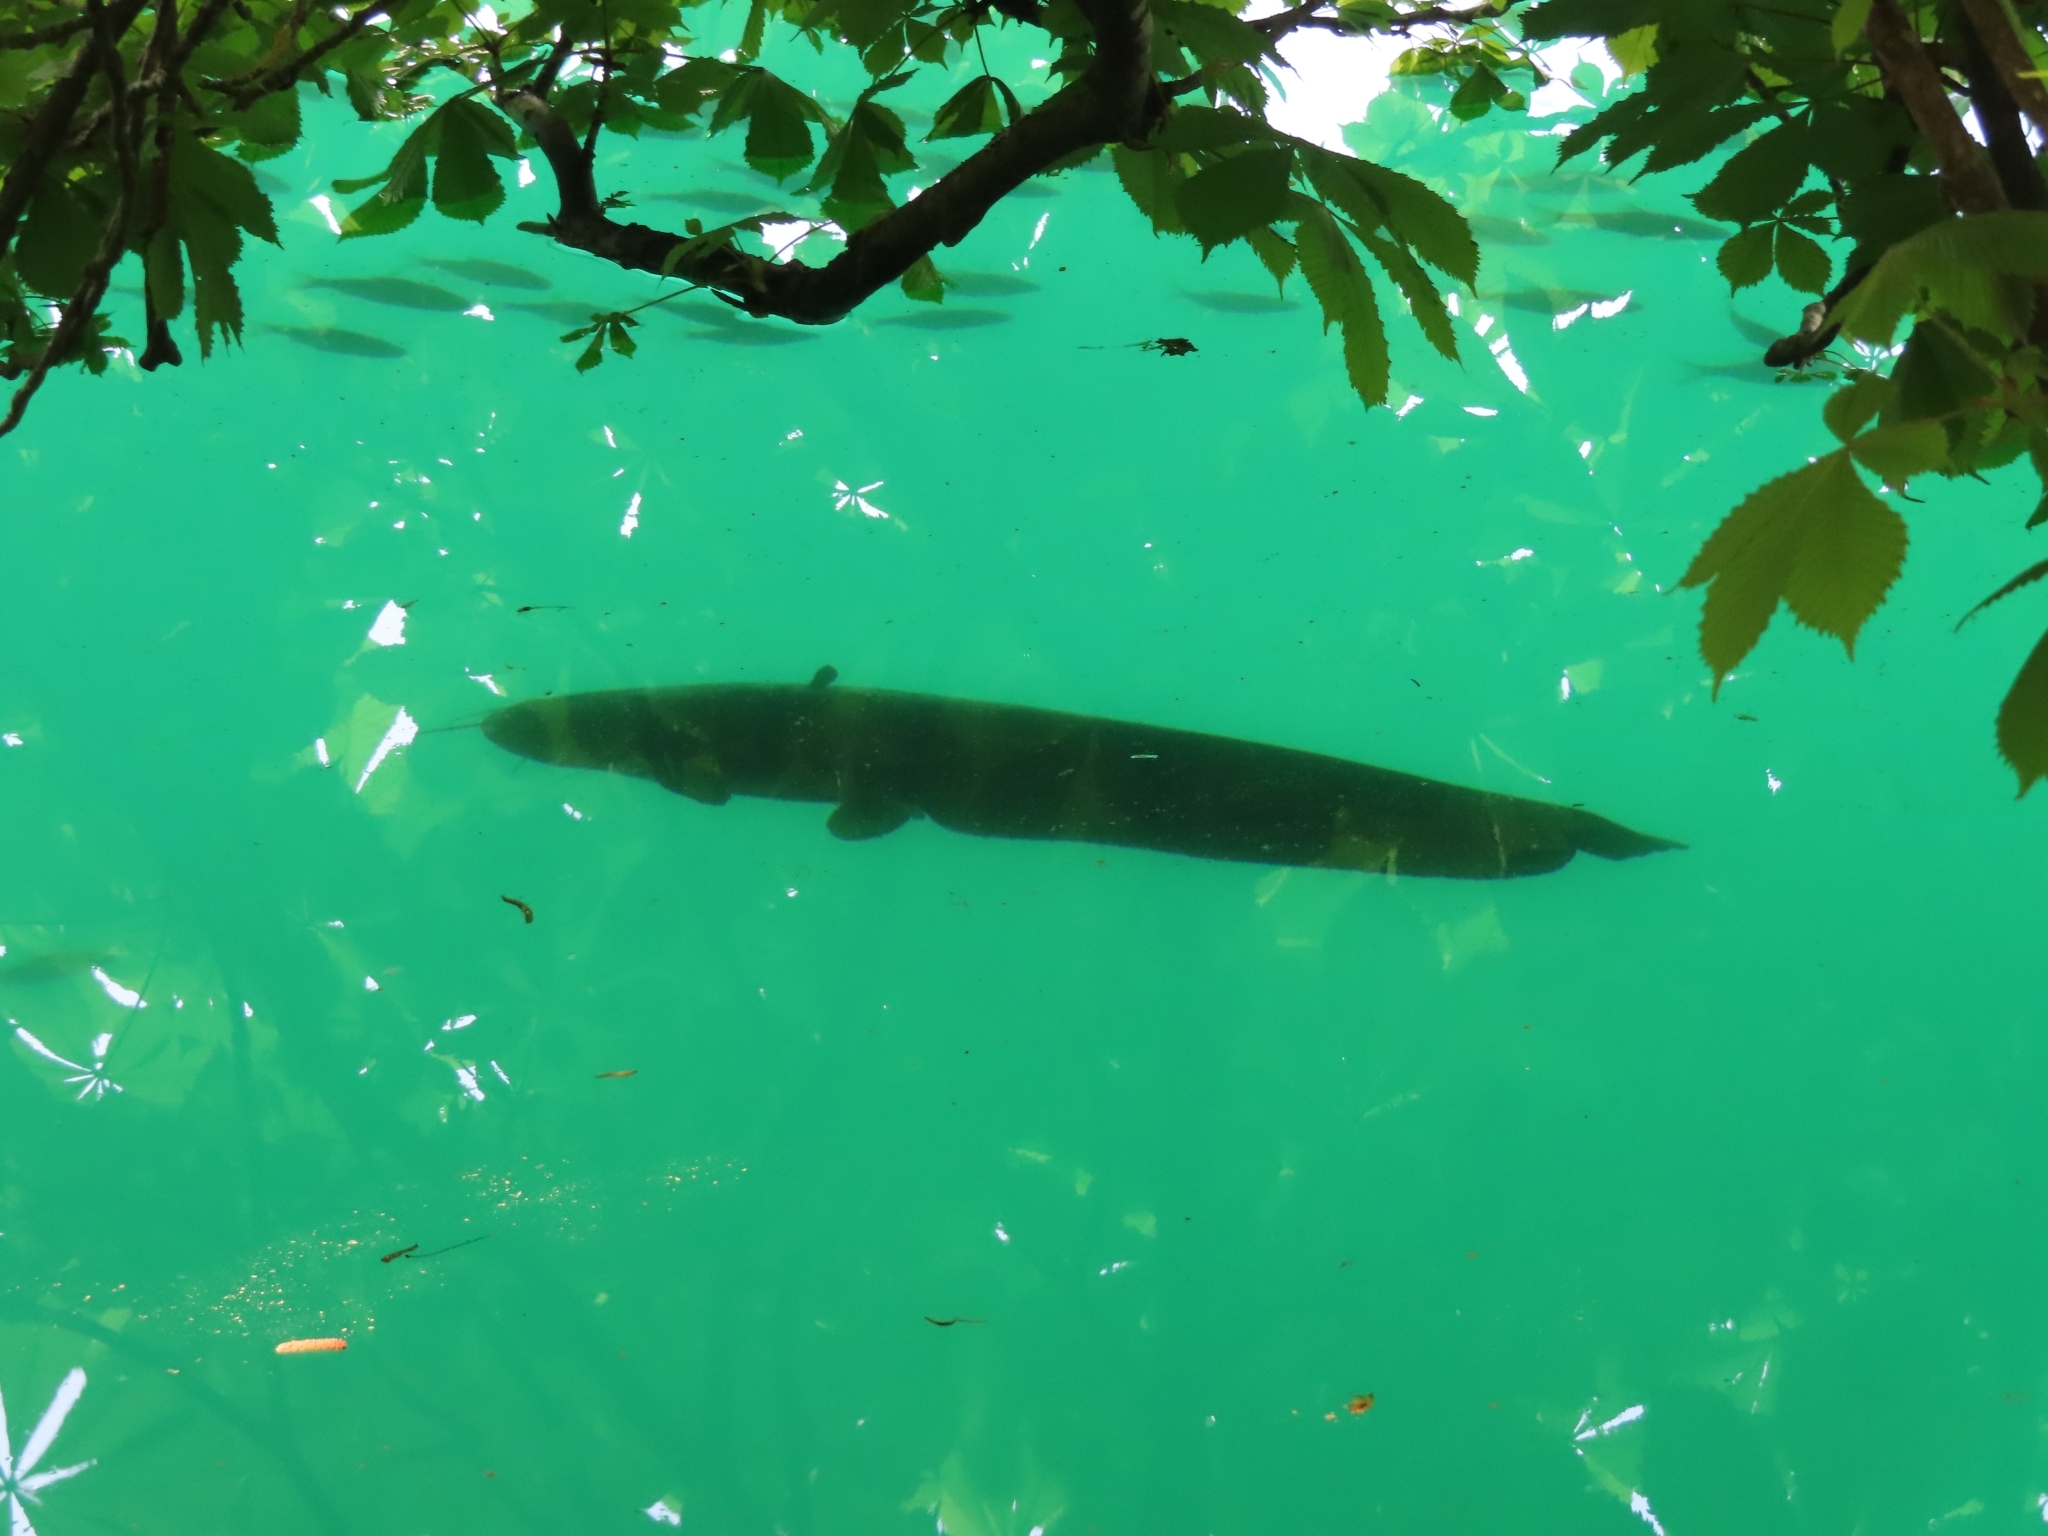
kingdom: Animalia
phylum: Chordata
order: Siluriformes
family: Siluridae
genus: Silurus
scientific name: Silurus glanis
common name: Wels
